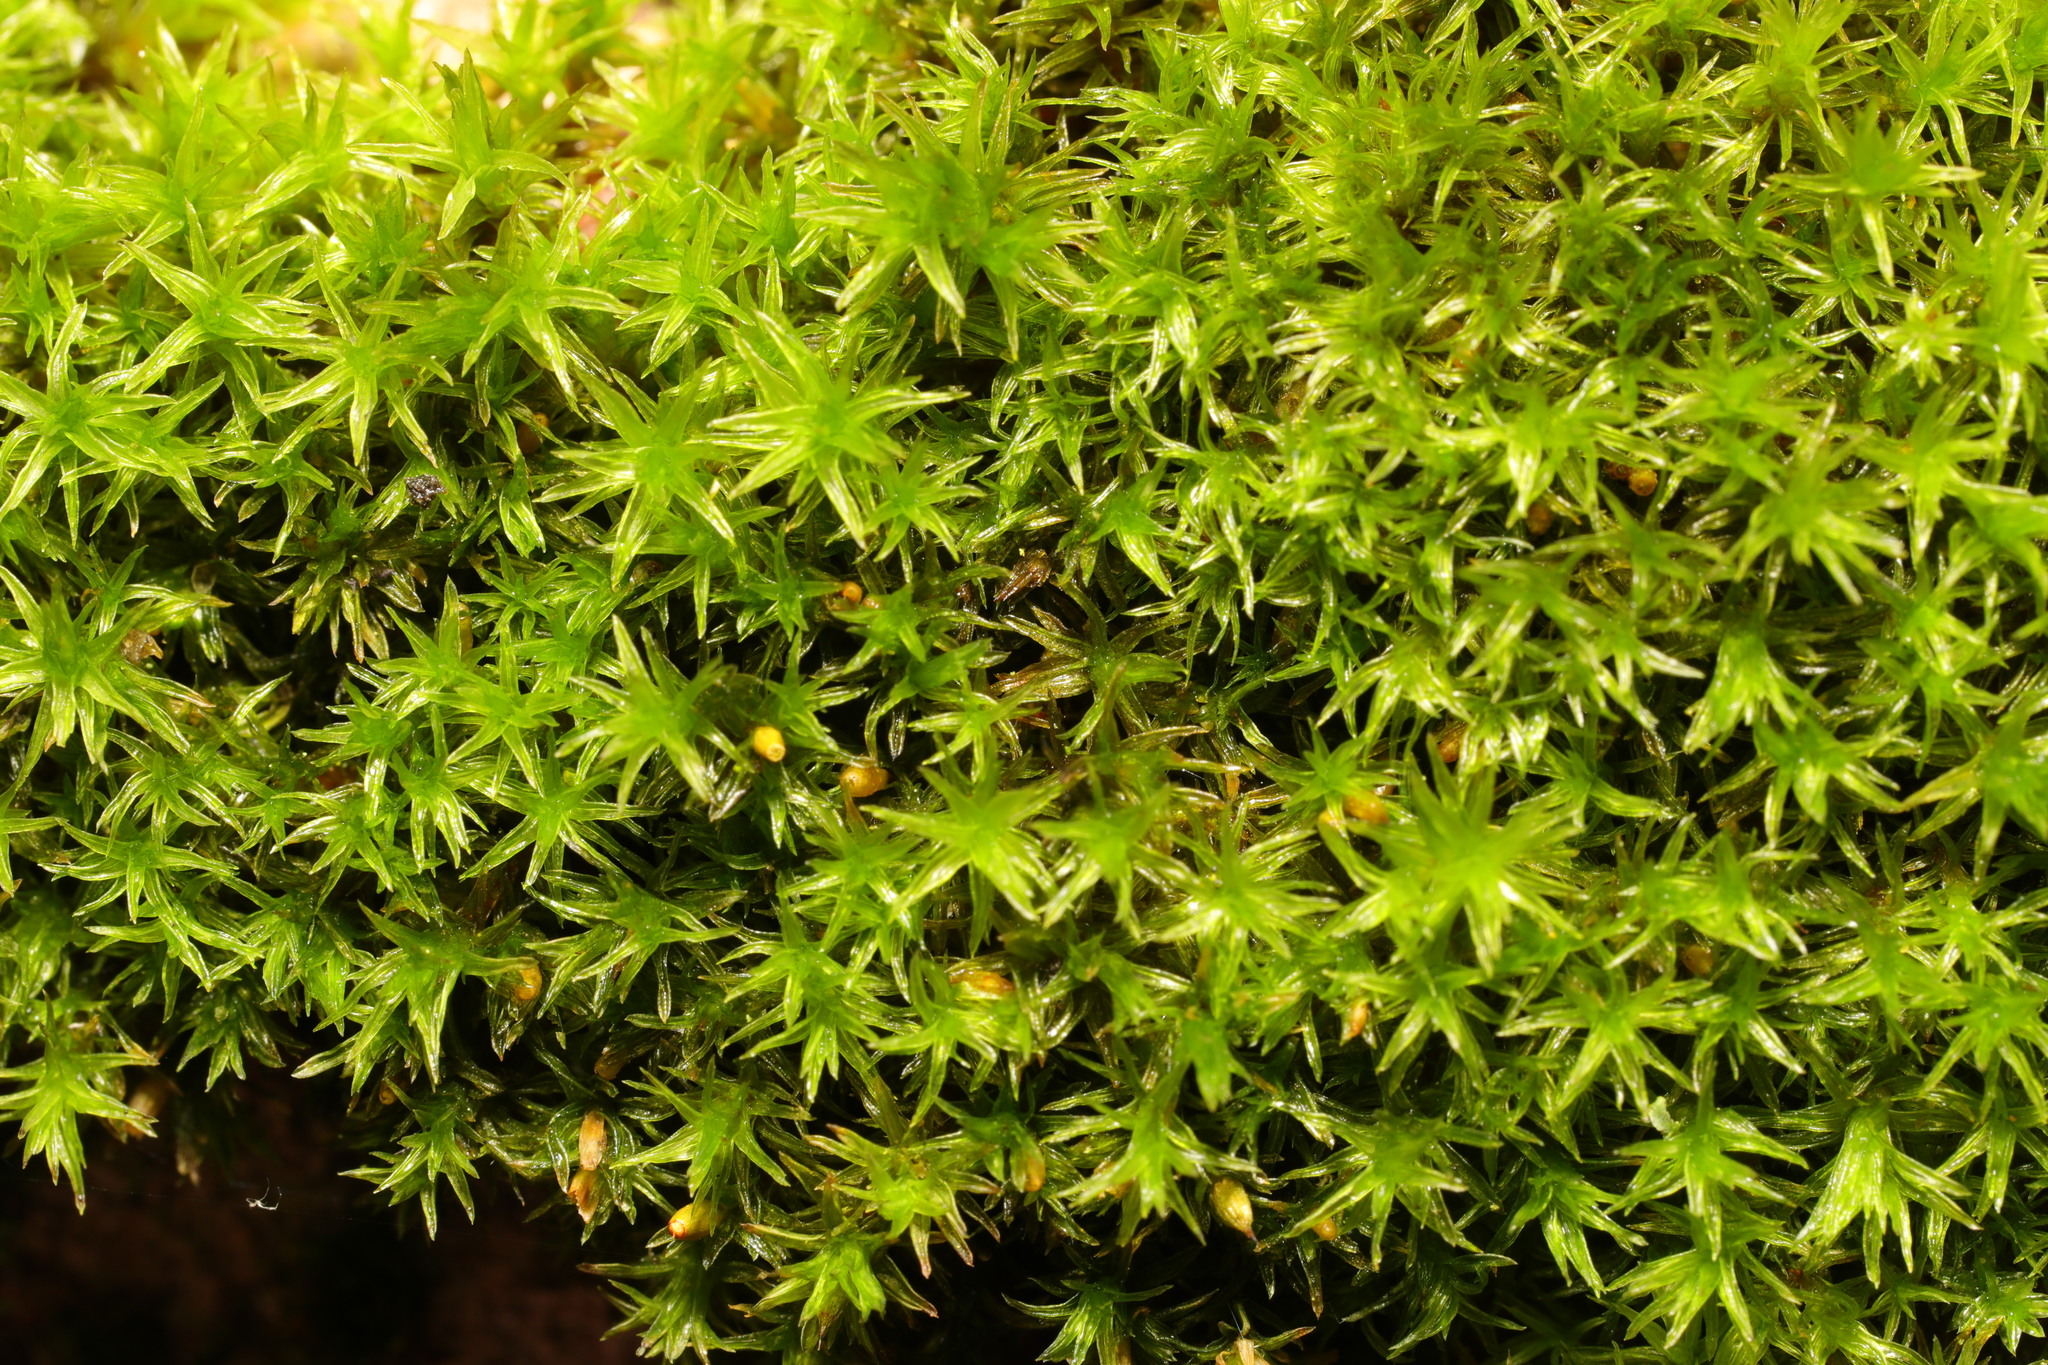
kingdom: Plantae
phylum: Bryophyta
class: Bryopsida
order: Orthotrichales
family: Orthotrichaceae
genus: Lewinskya
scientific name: Lewinskya affinis
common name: Wood bristle-moss
